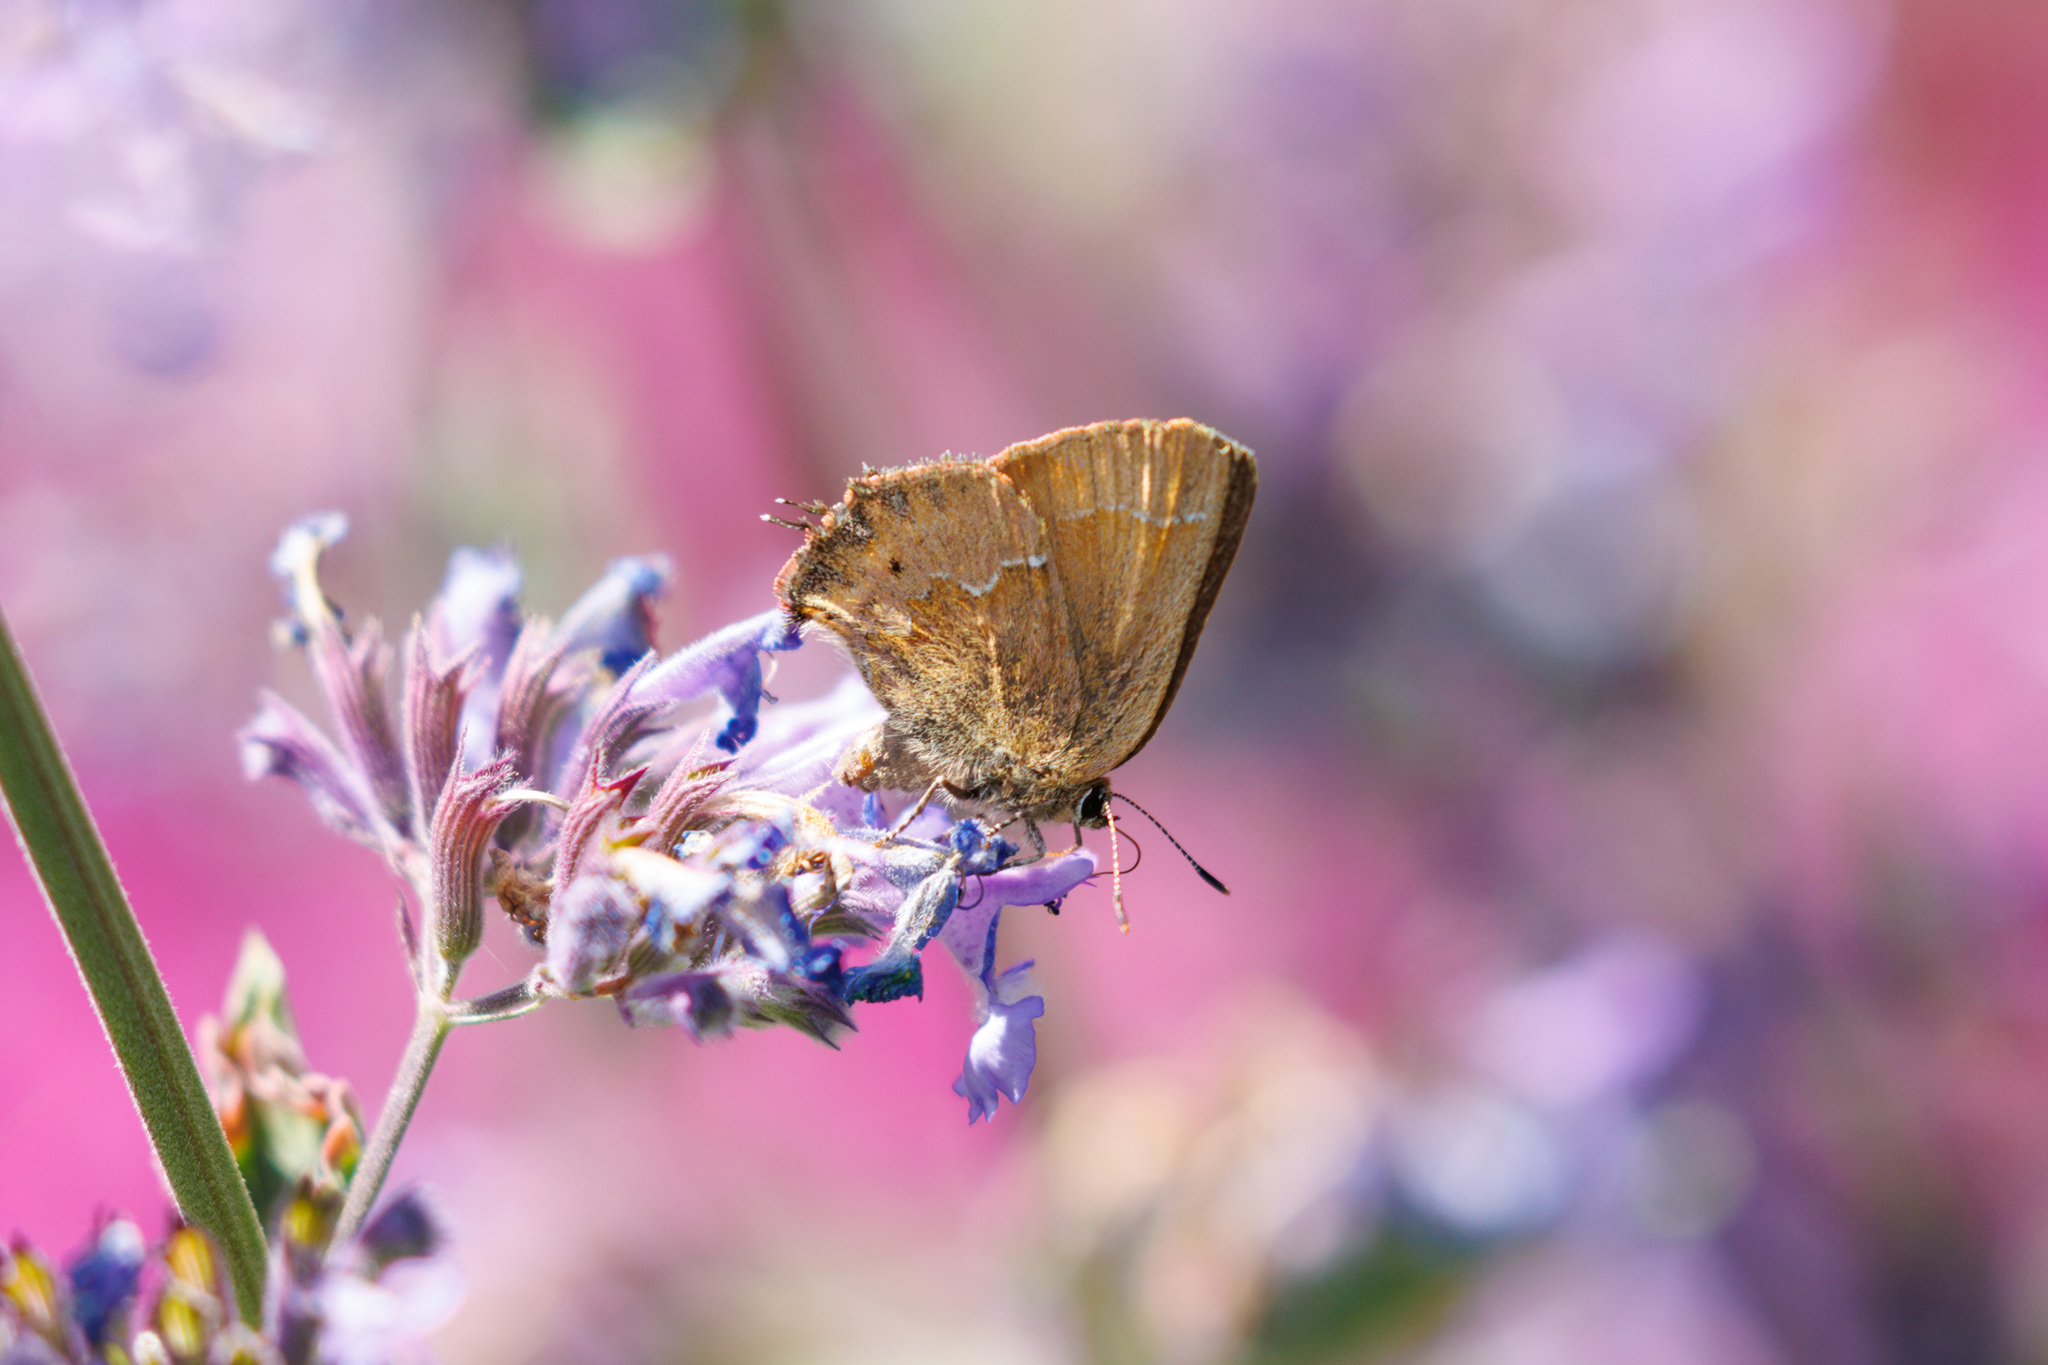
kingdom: Animalia
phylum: Arthropoda
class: Insecta
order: Lepidoptera
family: Lycaenidae
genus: Mitoura
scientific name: Mitoura gryneus
